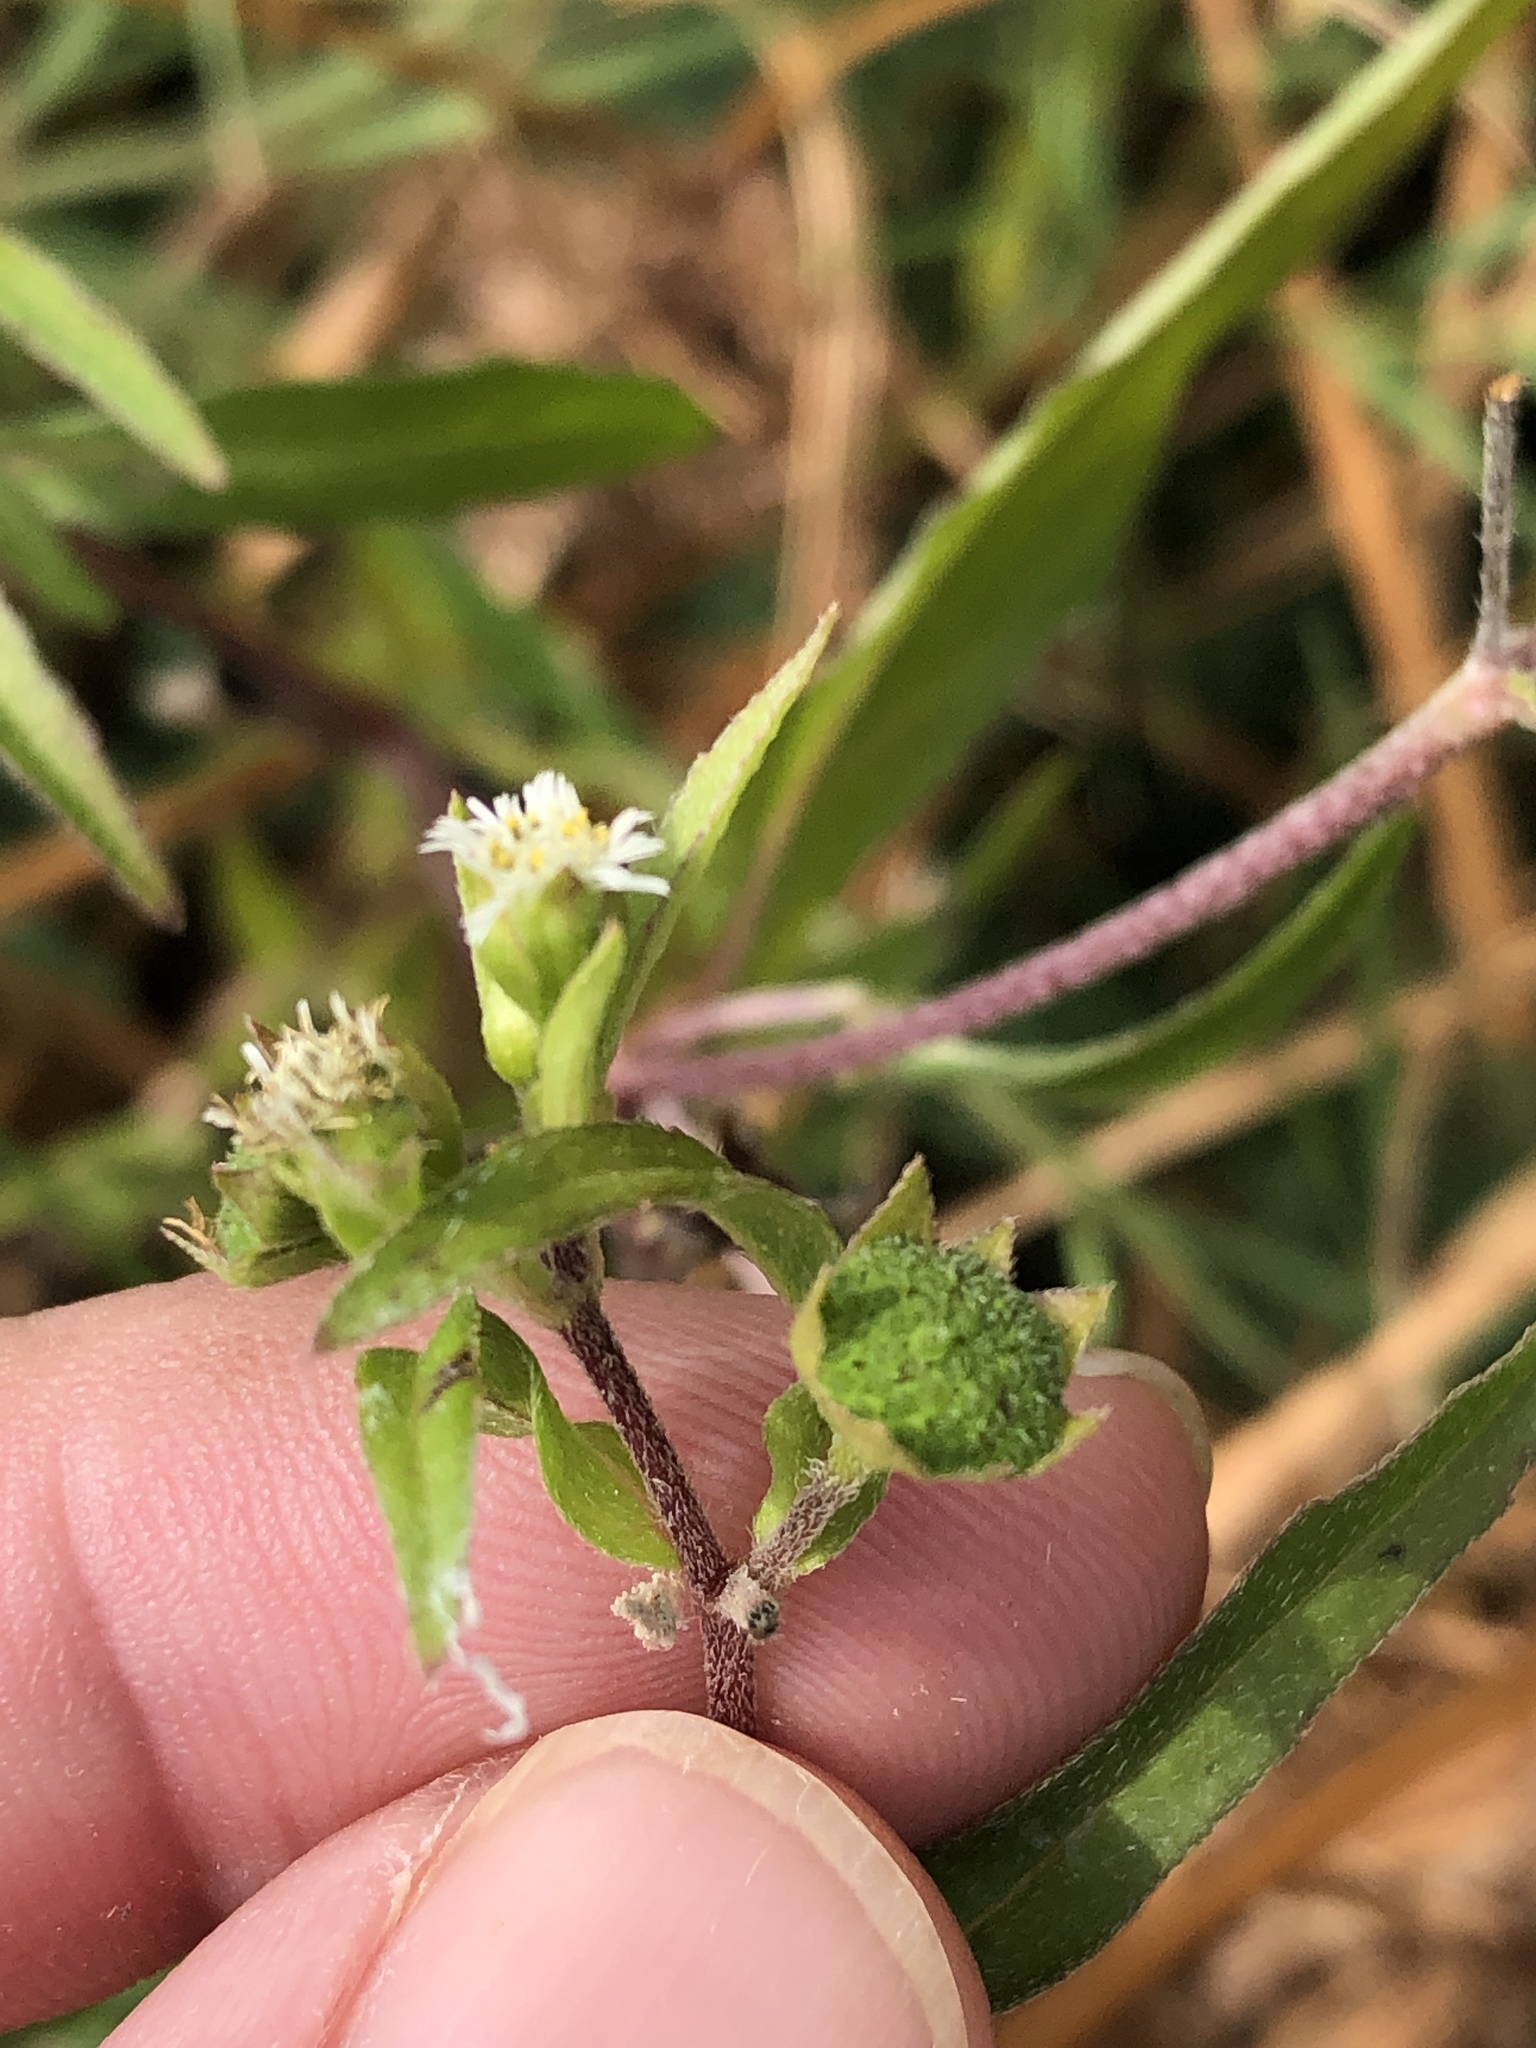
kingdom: Plantae
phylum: Tracheophyta
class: Magnoliopsida
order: Asterales
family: Asteraceae
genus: Eclipta
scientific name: Eclipta prostrata
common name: False daisy
